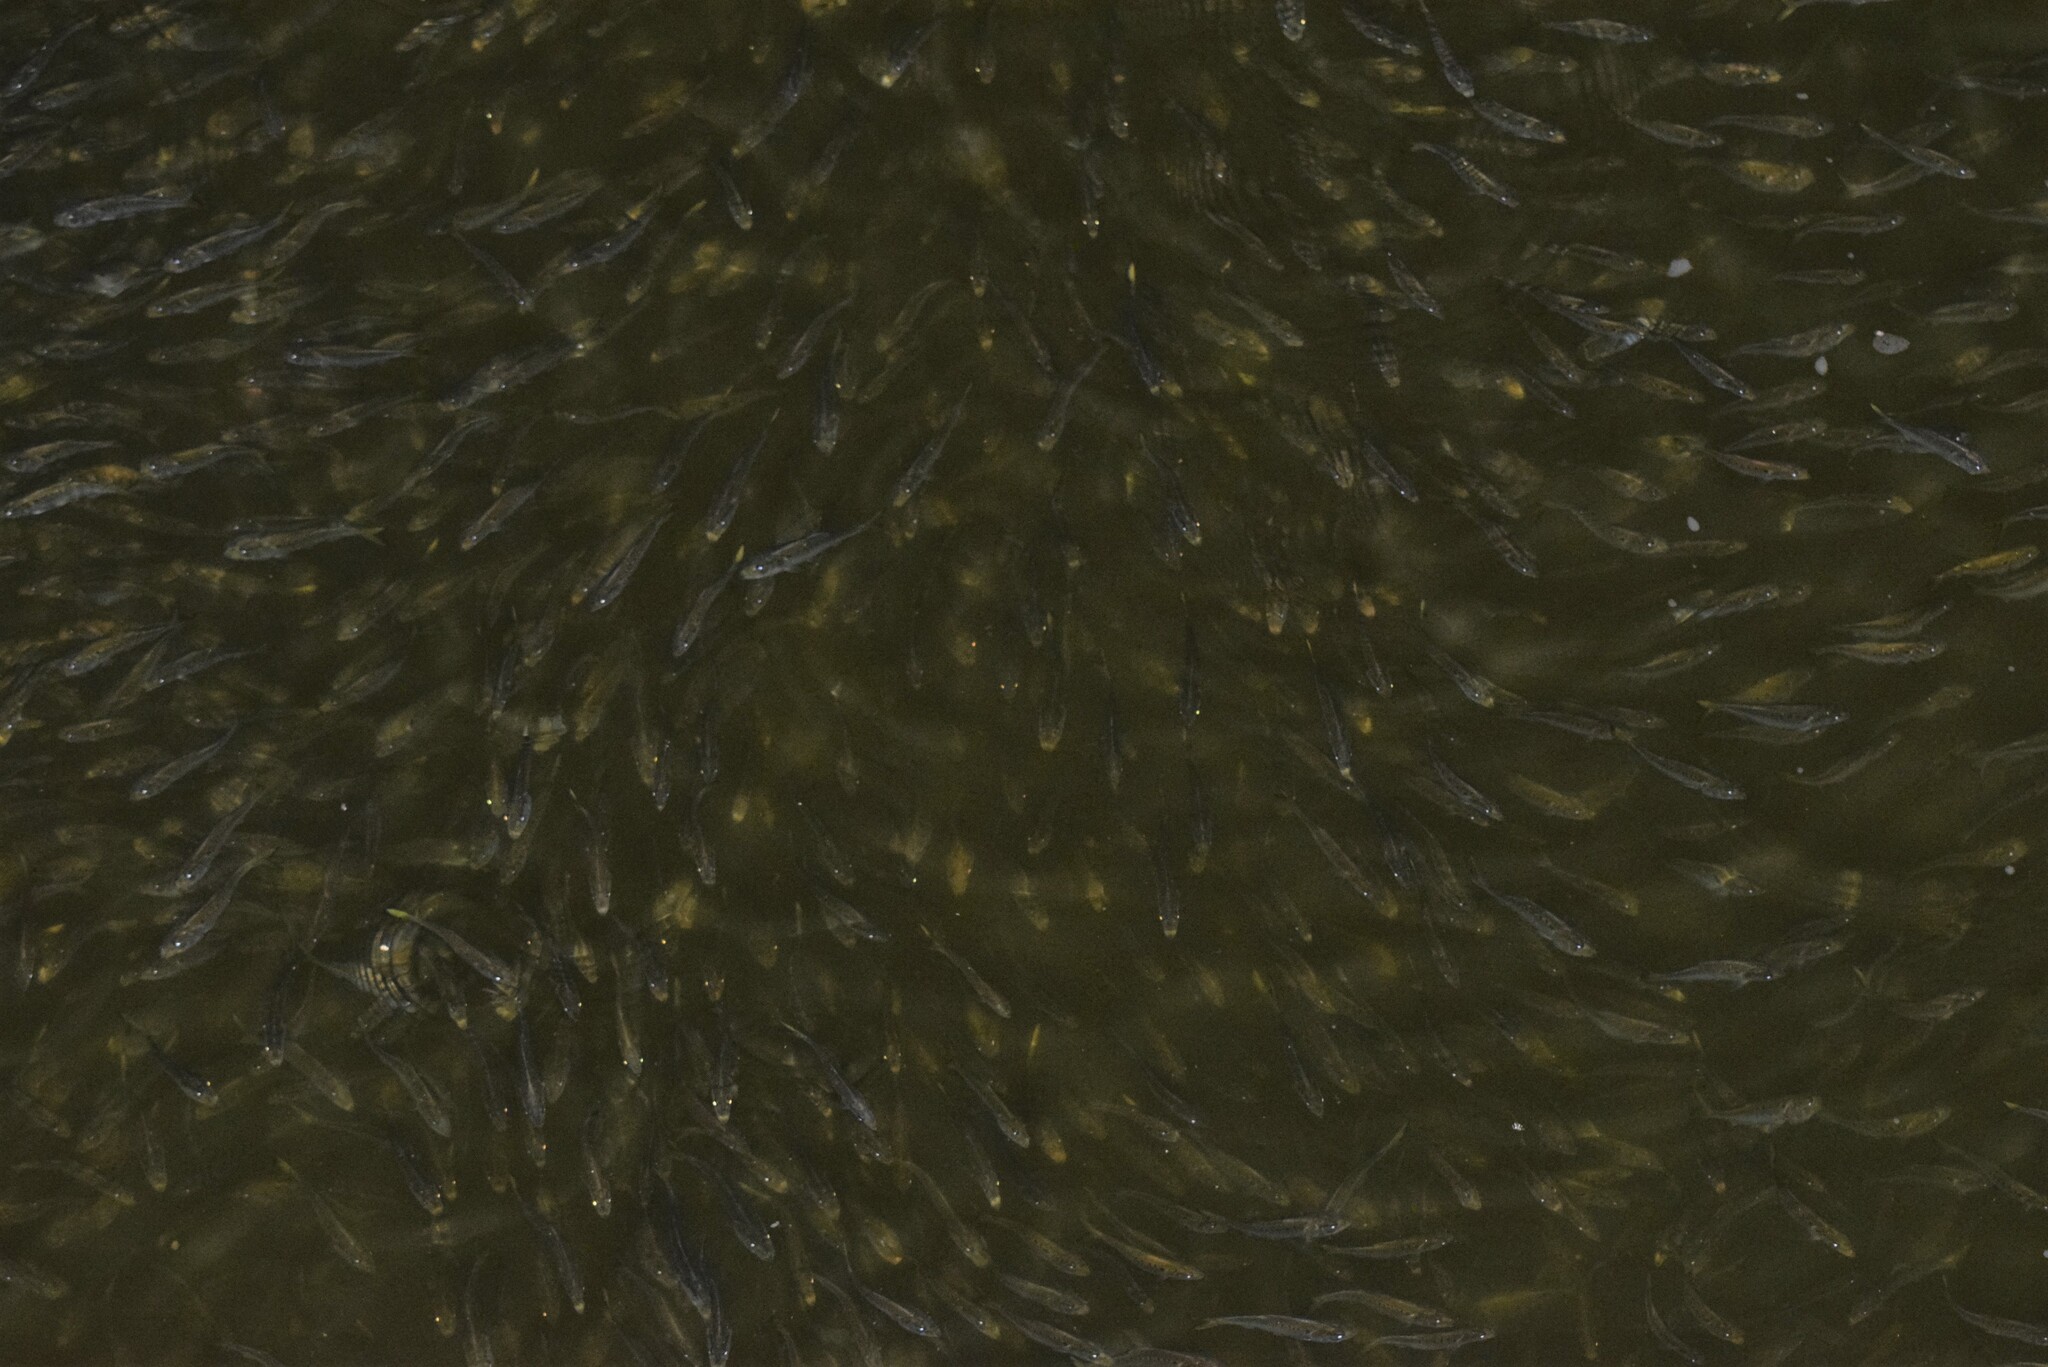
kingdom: Animalia
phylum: Chordata
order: Clupeiformes
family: Clupeidae
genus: Brevoortia
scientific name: Brevoortia tyrannus
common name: Atlantic menhaden
